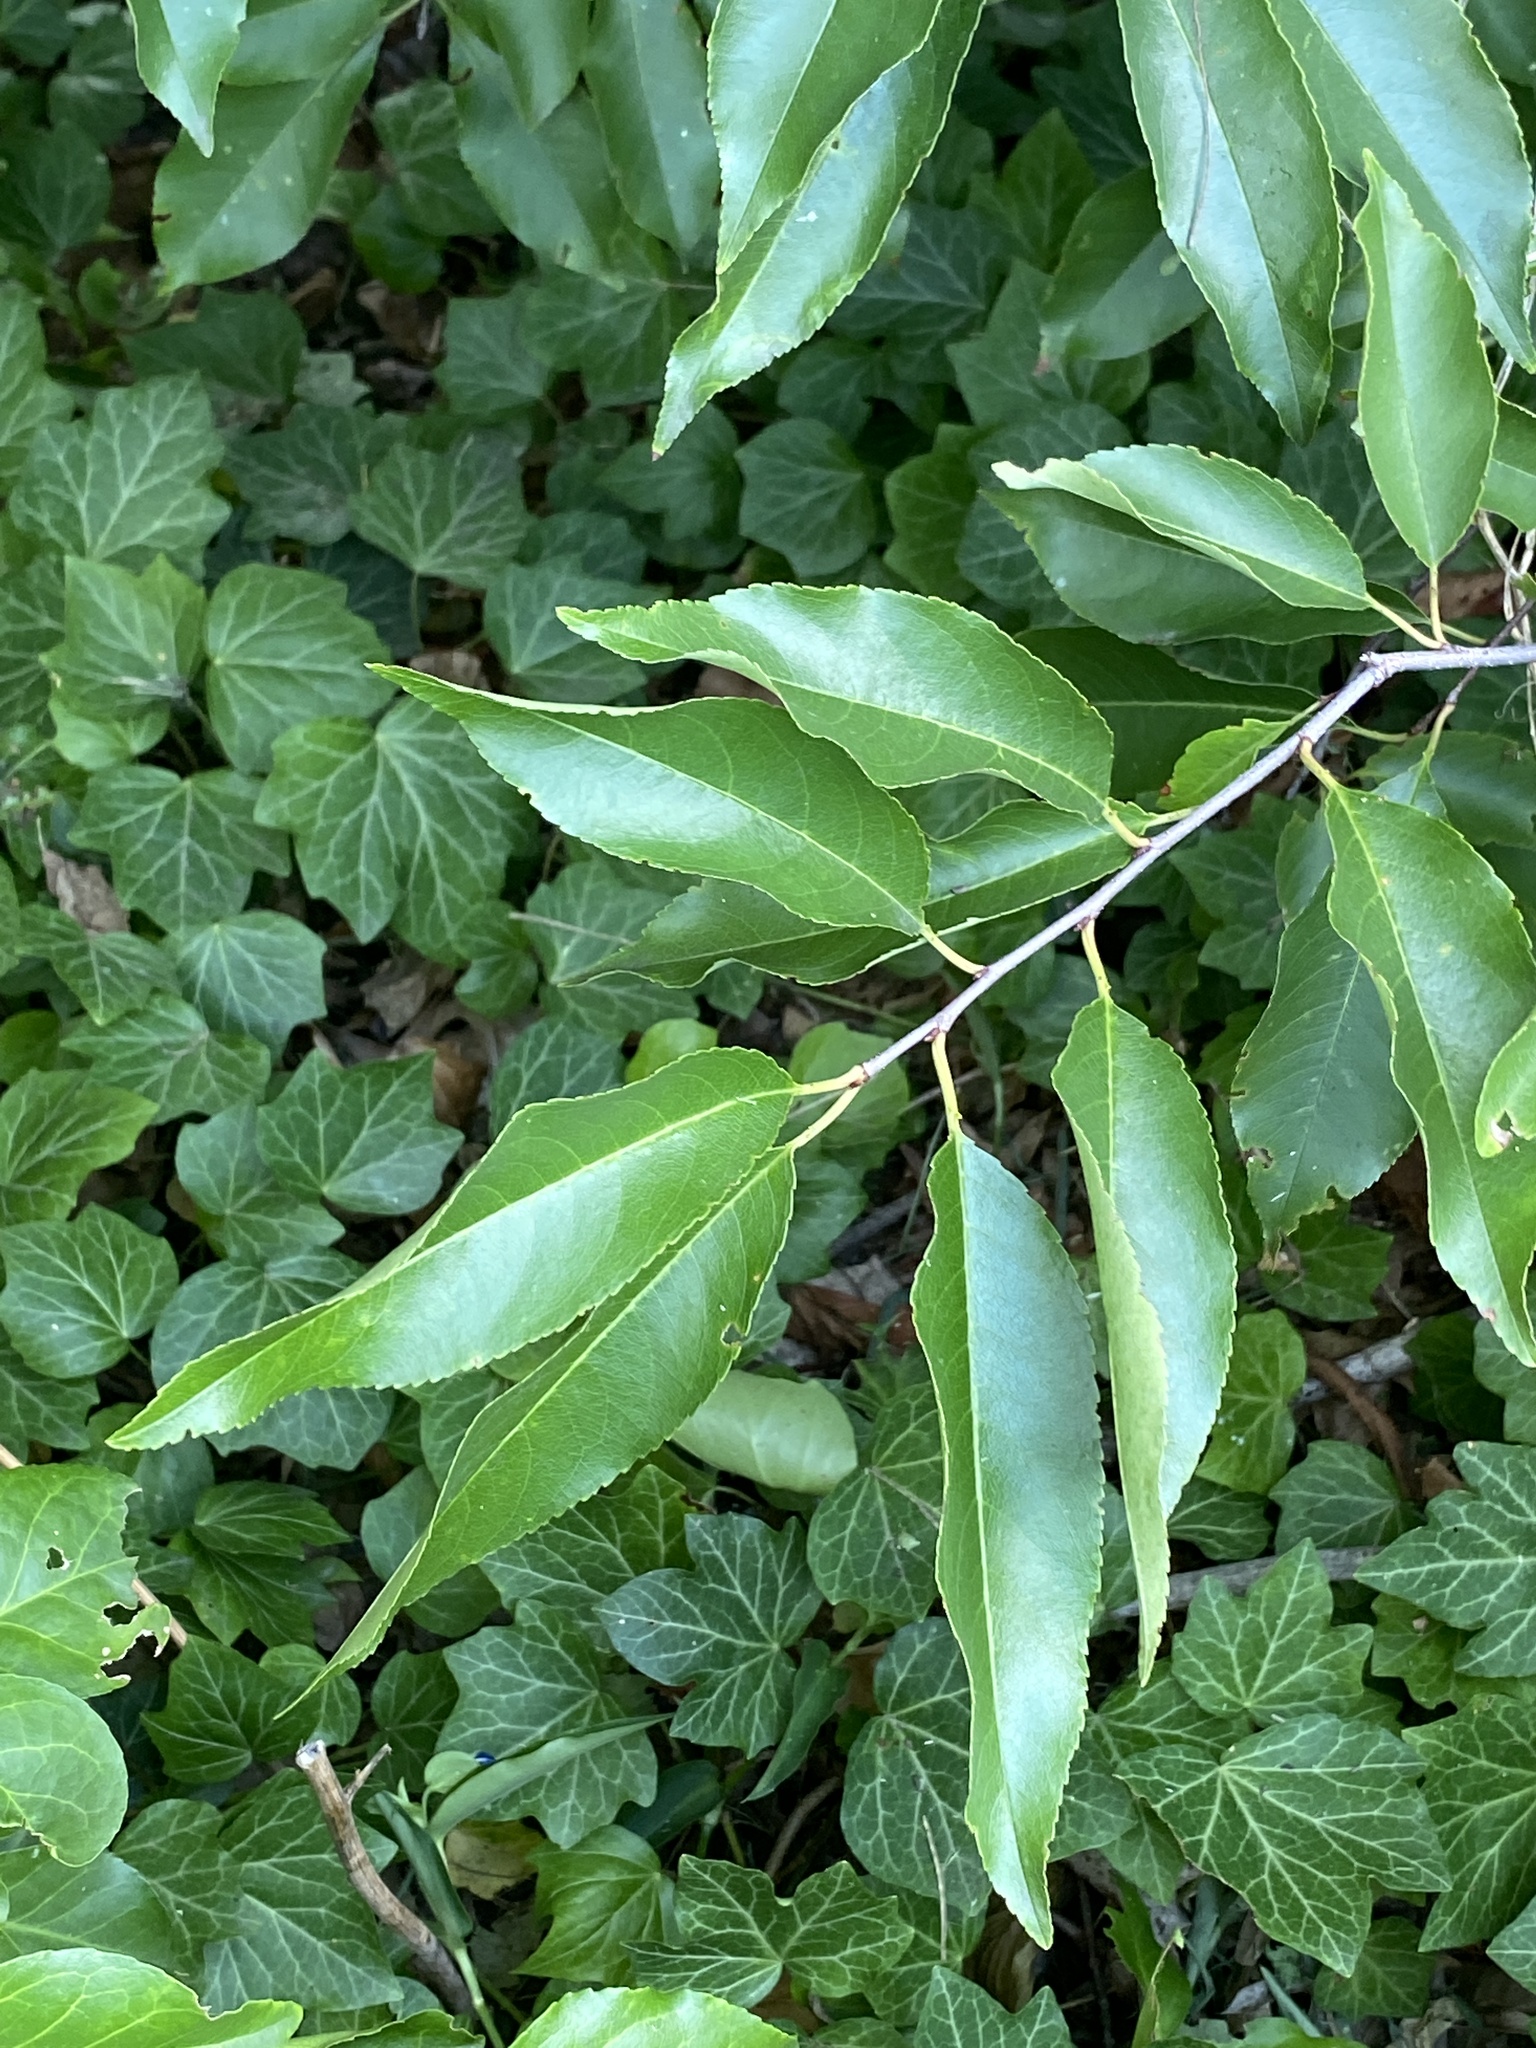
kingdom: Plantae
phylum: Tracheophyta
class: Magnoliopsida
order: Rosales
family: Rosaceae
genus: Prunus
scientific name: Prunus serotina
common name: Black cherry
